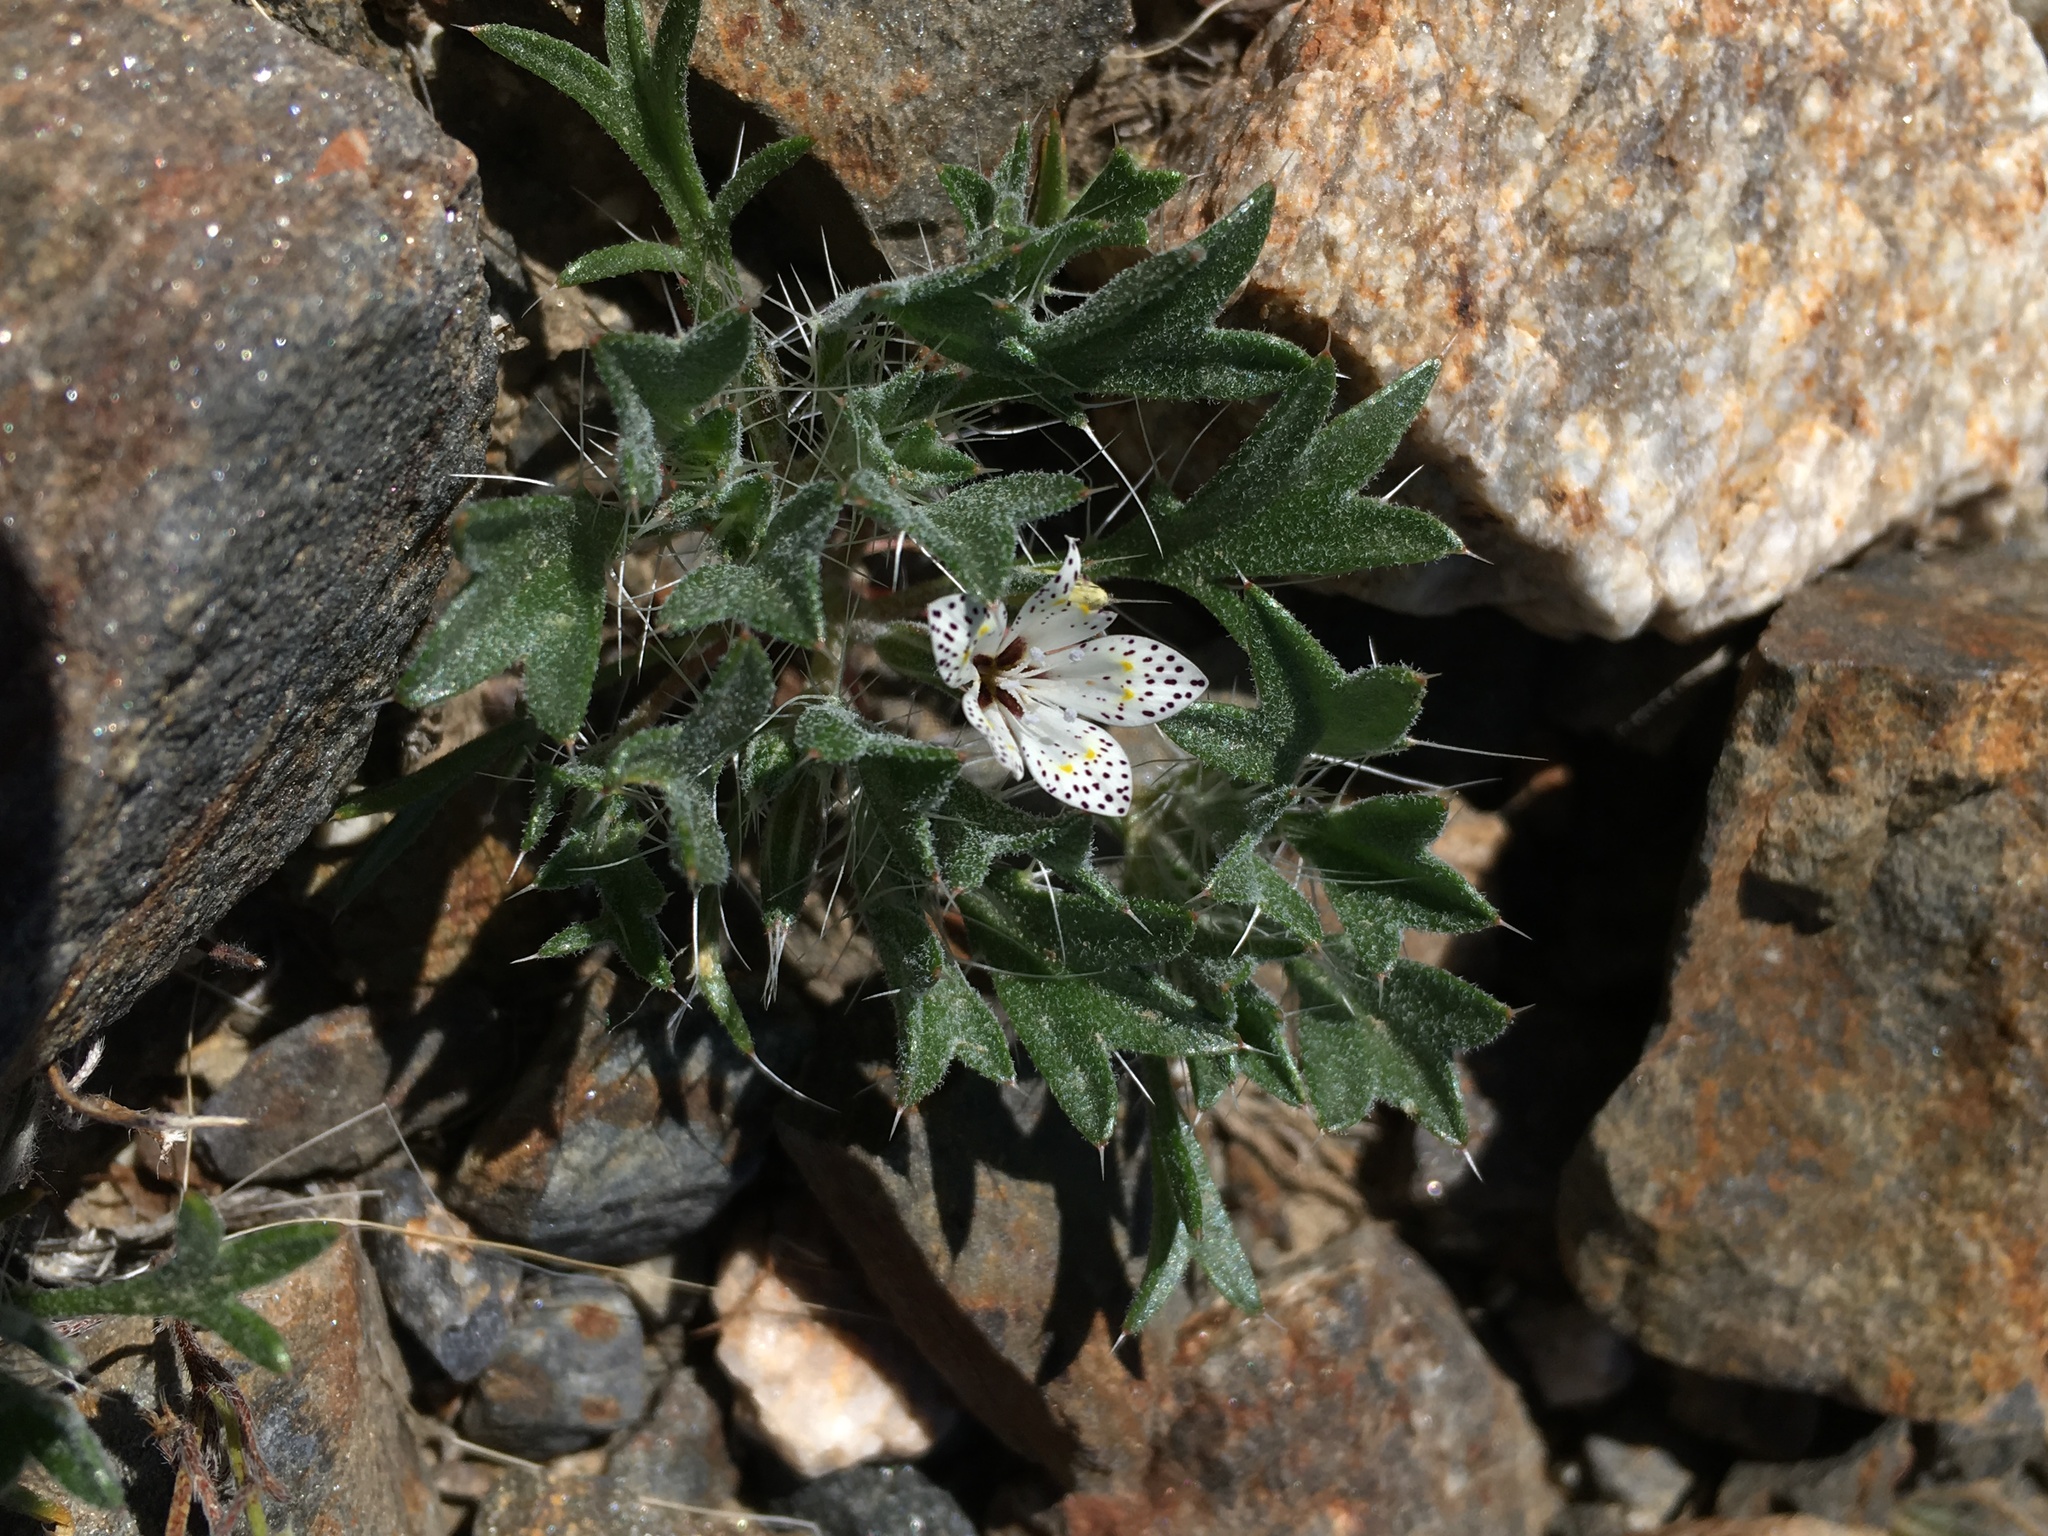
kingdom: Plantae
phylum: Tracheophyta
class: Magnoliopsida
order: Ericales
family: Polemoniaceae
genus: Langloisia
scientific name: Langloisia setosissima
